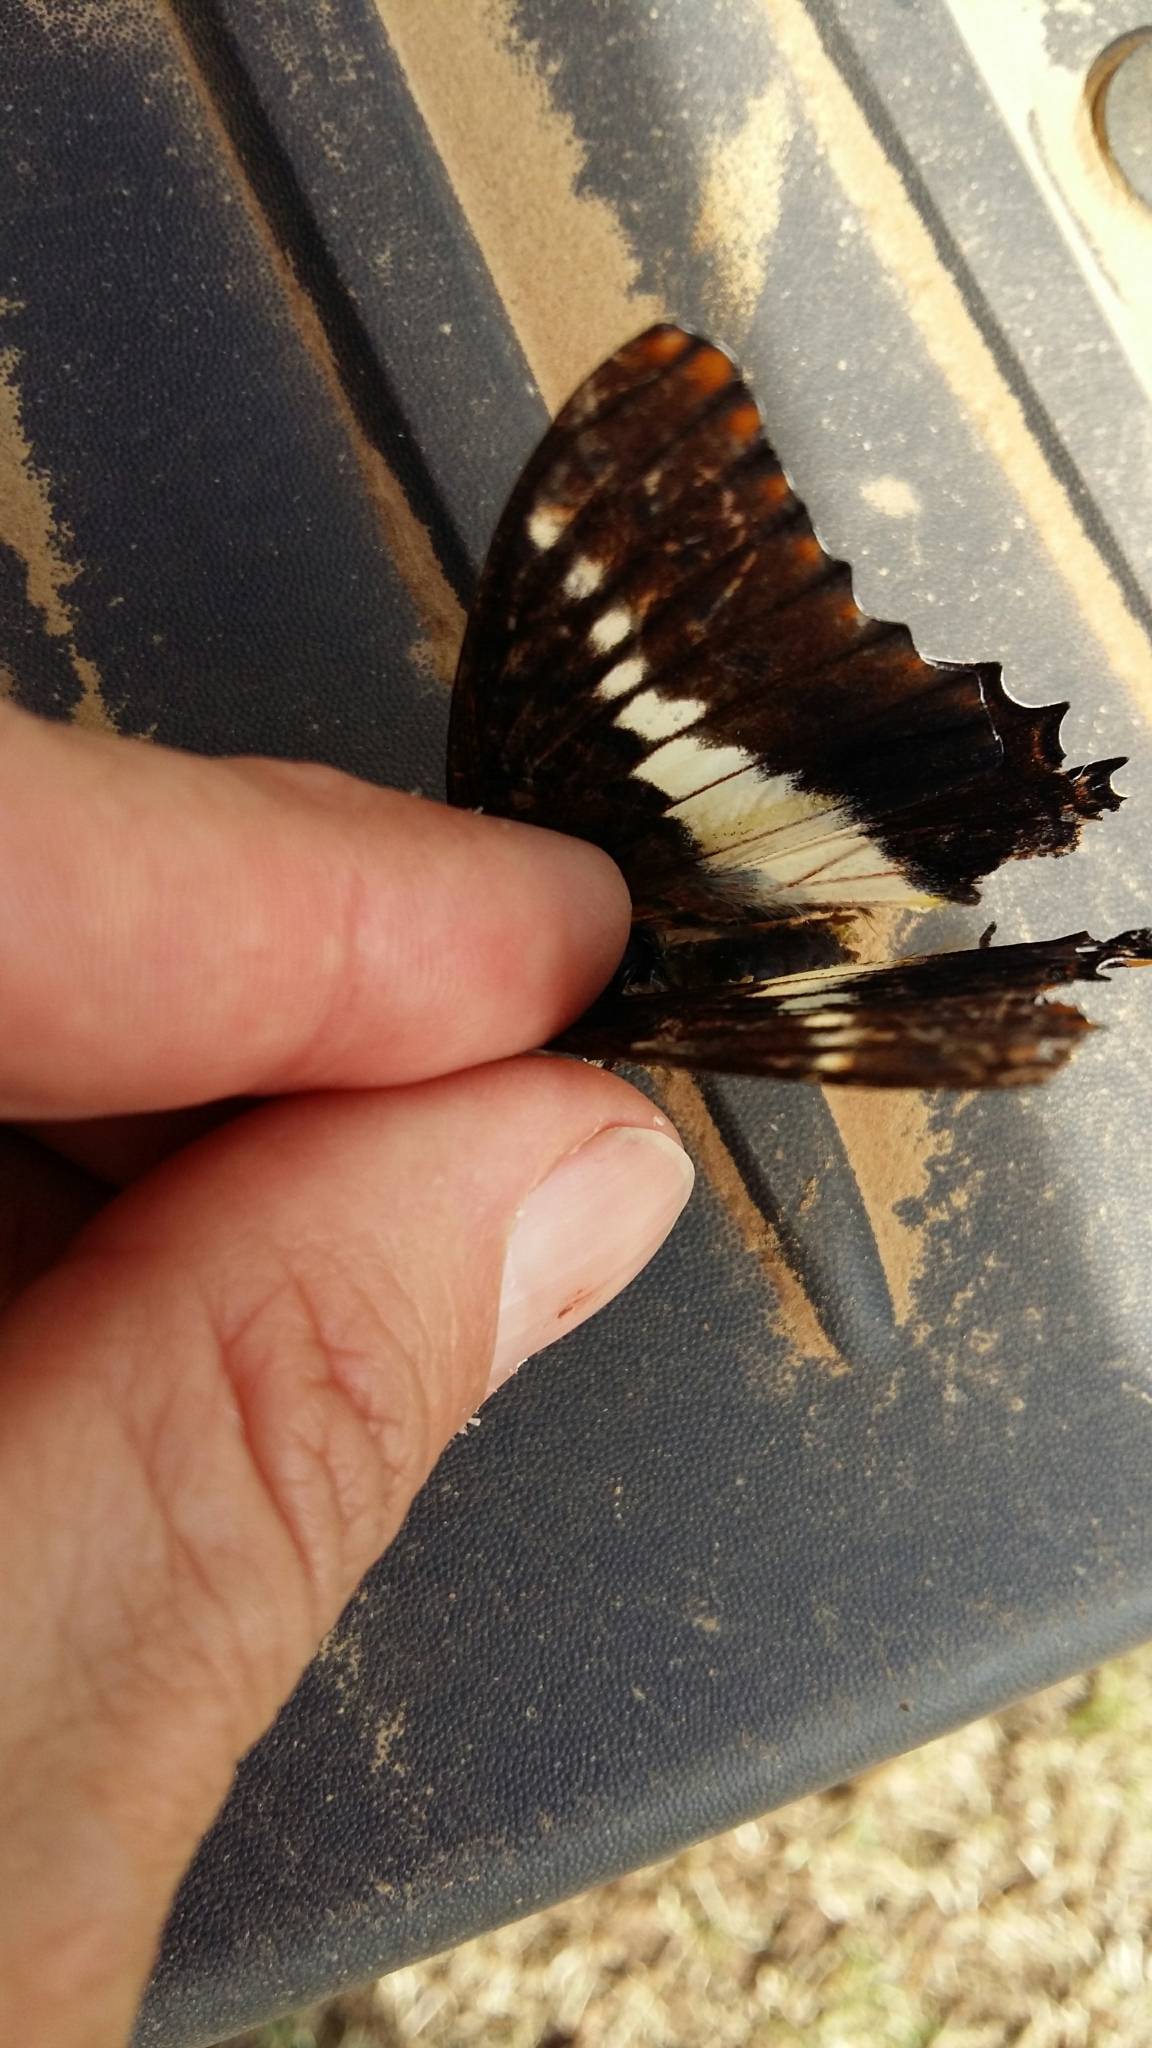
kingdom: Animalia
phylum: Arthropoda
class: Insecta
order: Lepidoptera
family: Nymphalidae
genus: Charaxes
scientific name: Charaxes brutus
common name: White-barred charaxes
